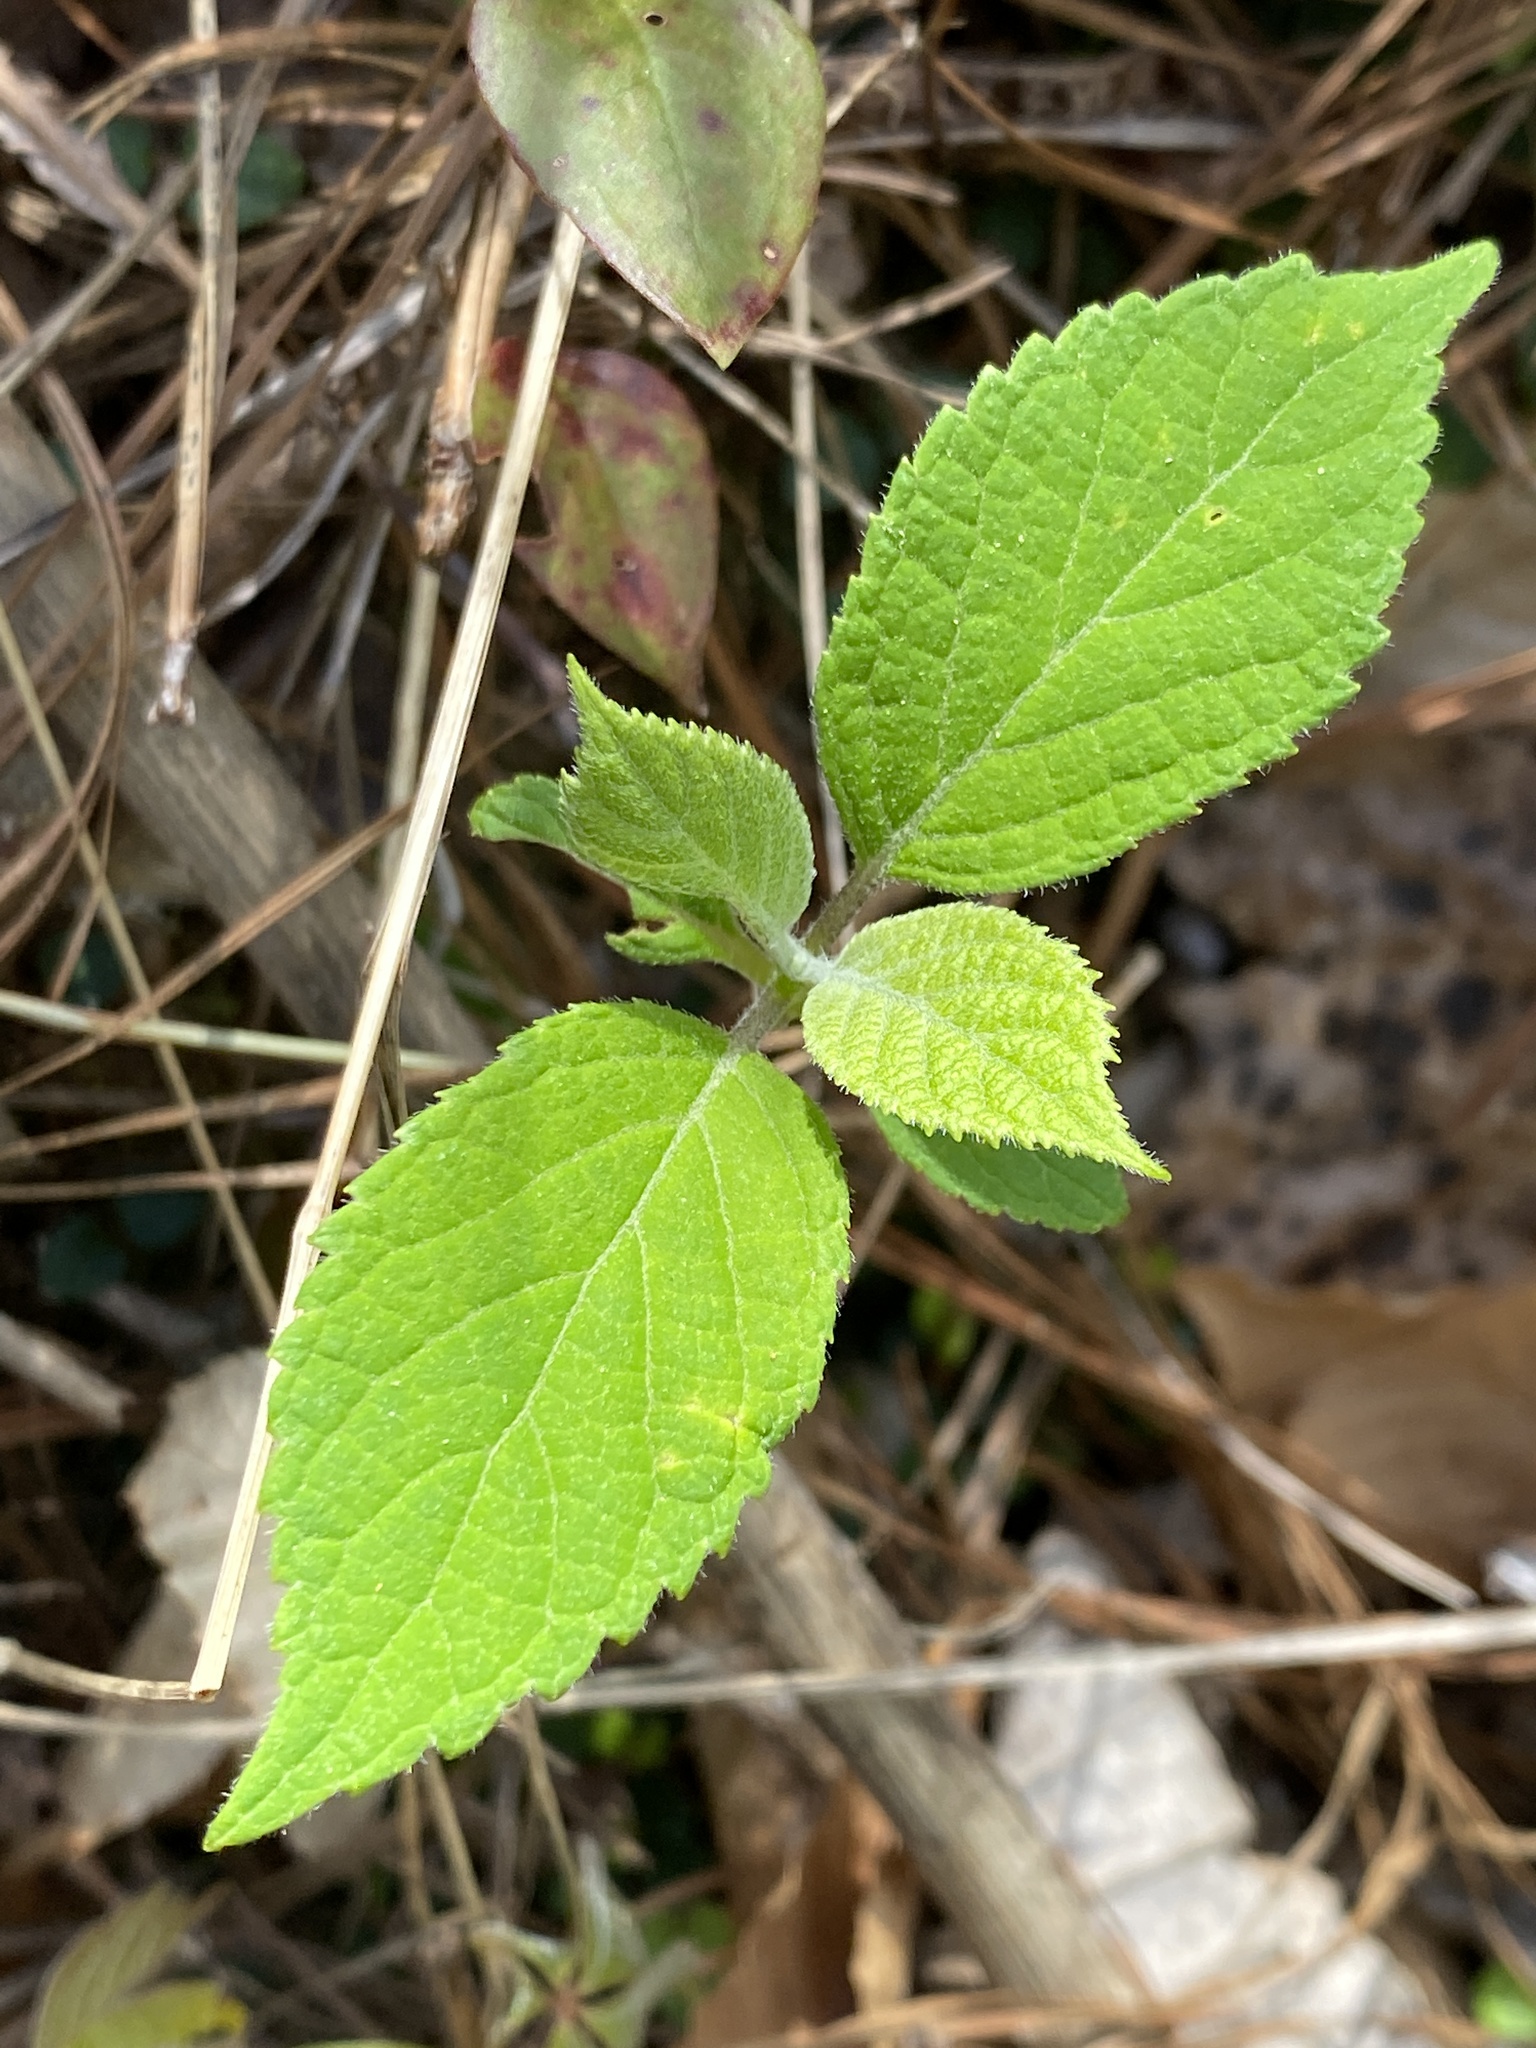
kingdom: Plantae
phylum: Tracheophyta
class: Magnoliopsida
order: Cornales
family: Hydrangeaceae
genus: Hydrangea
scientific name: Hydrangea radiata
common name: Silverleaf hydrangea
